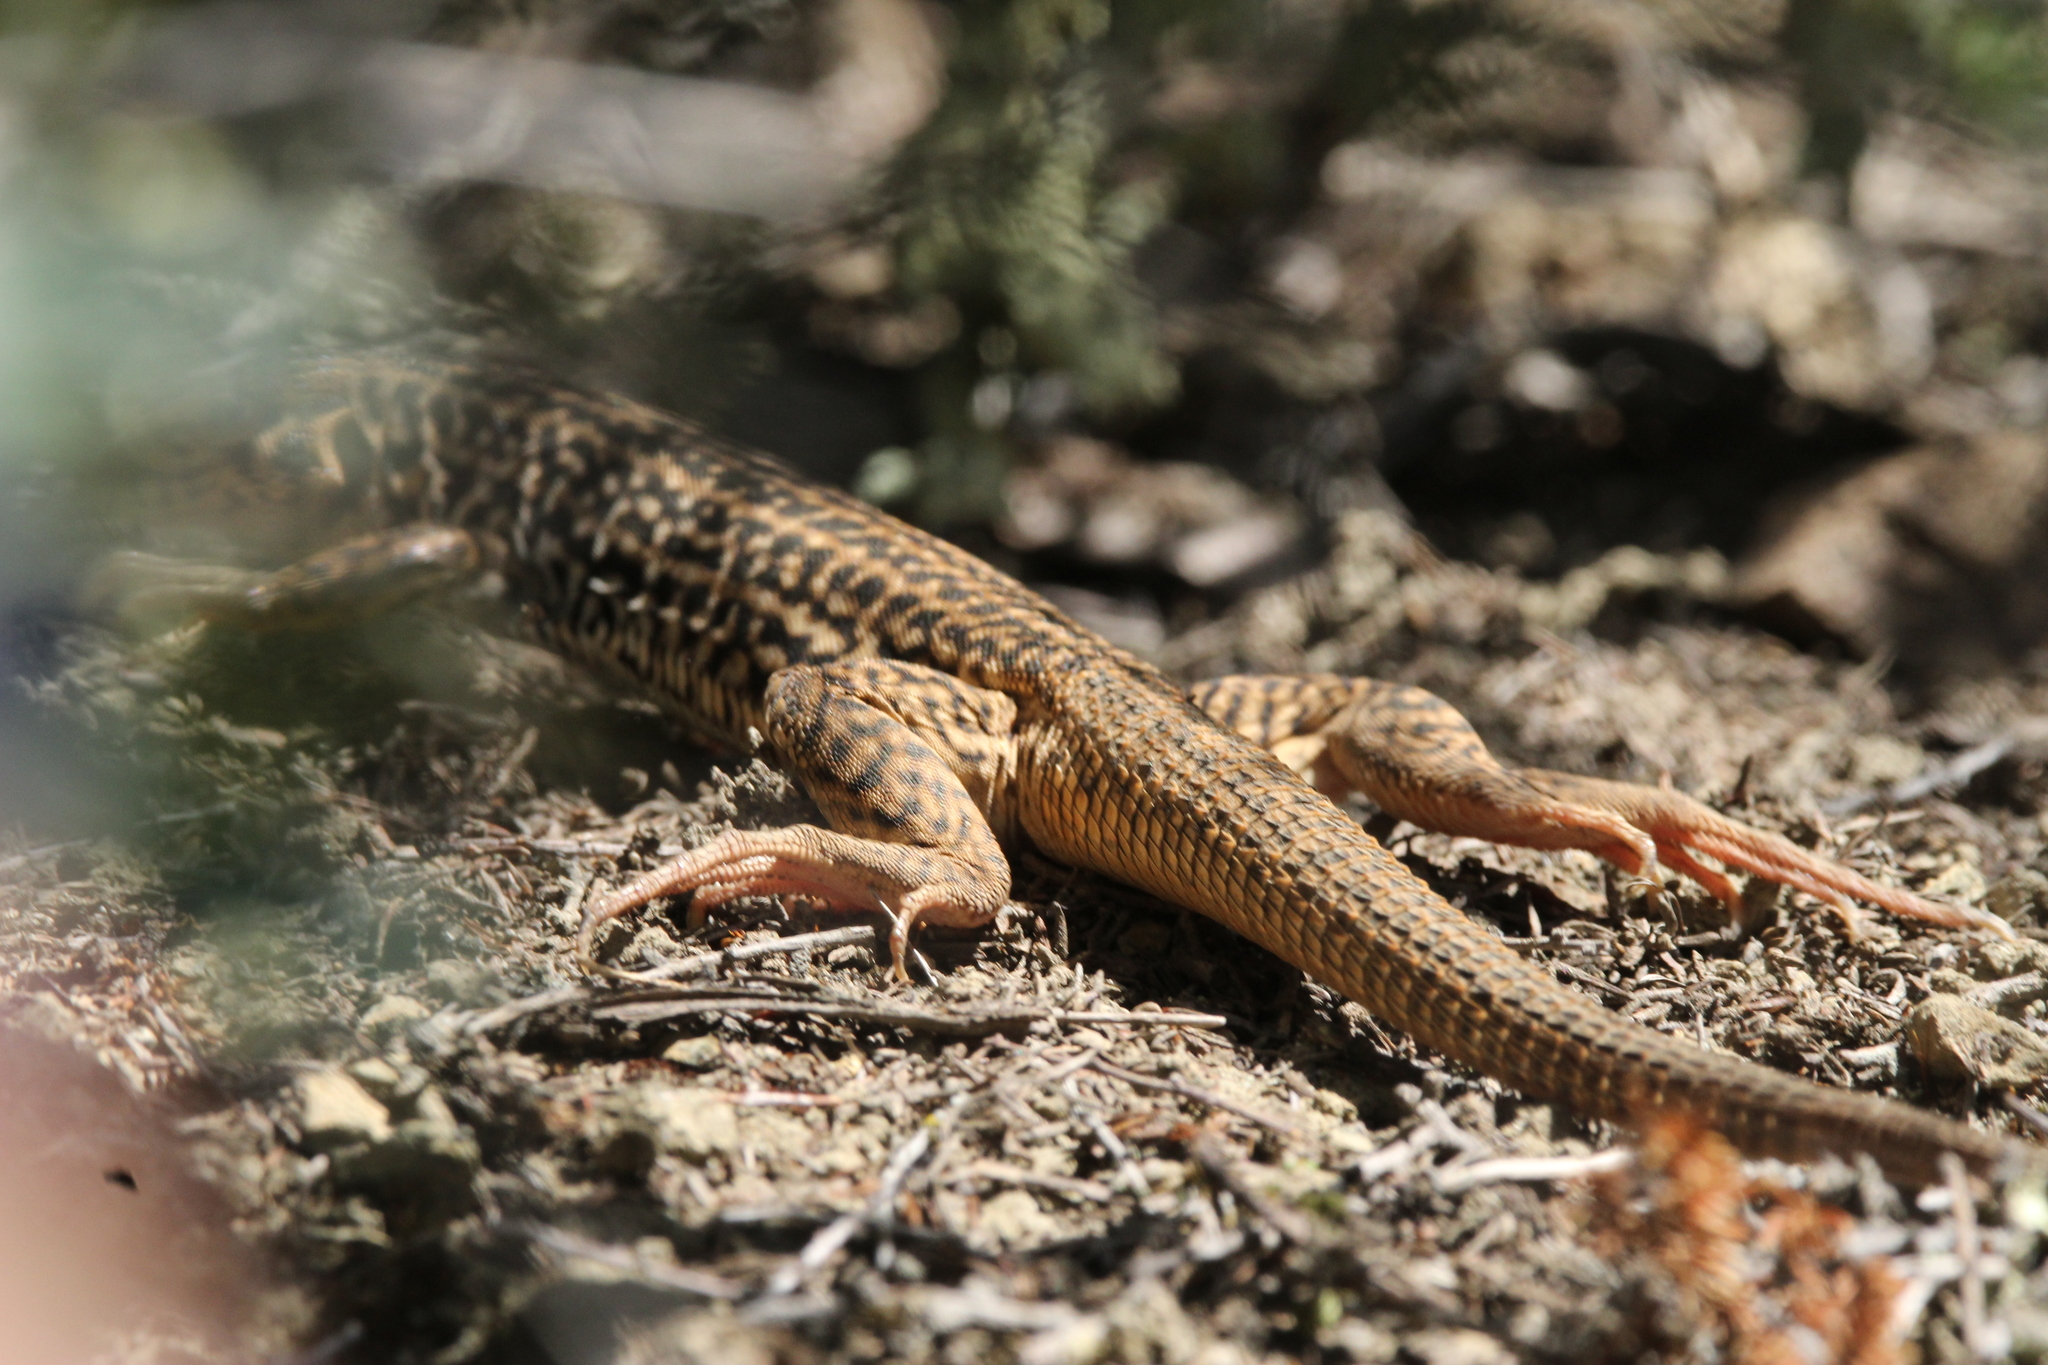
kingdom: Animalia
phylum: Chordata
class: Squamata
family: Teiidae
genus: Aspidoscelis
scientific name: Aspidoscelis tigris
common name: Tiger whiptail
